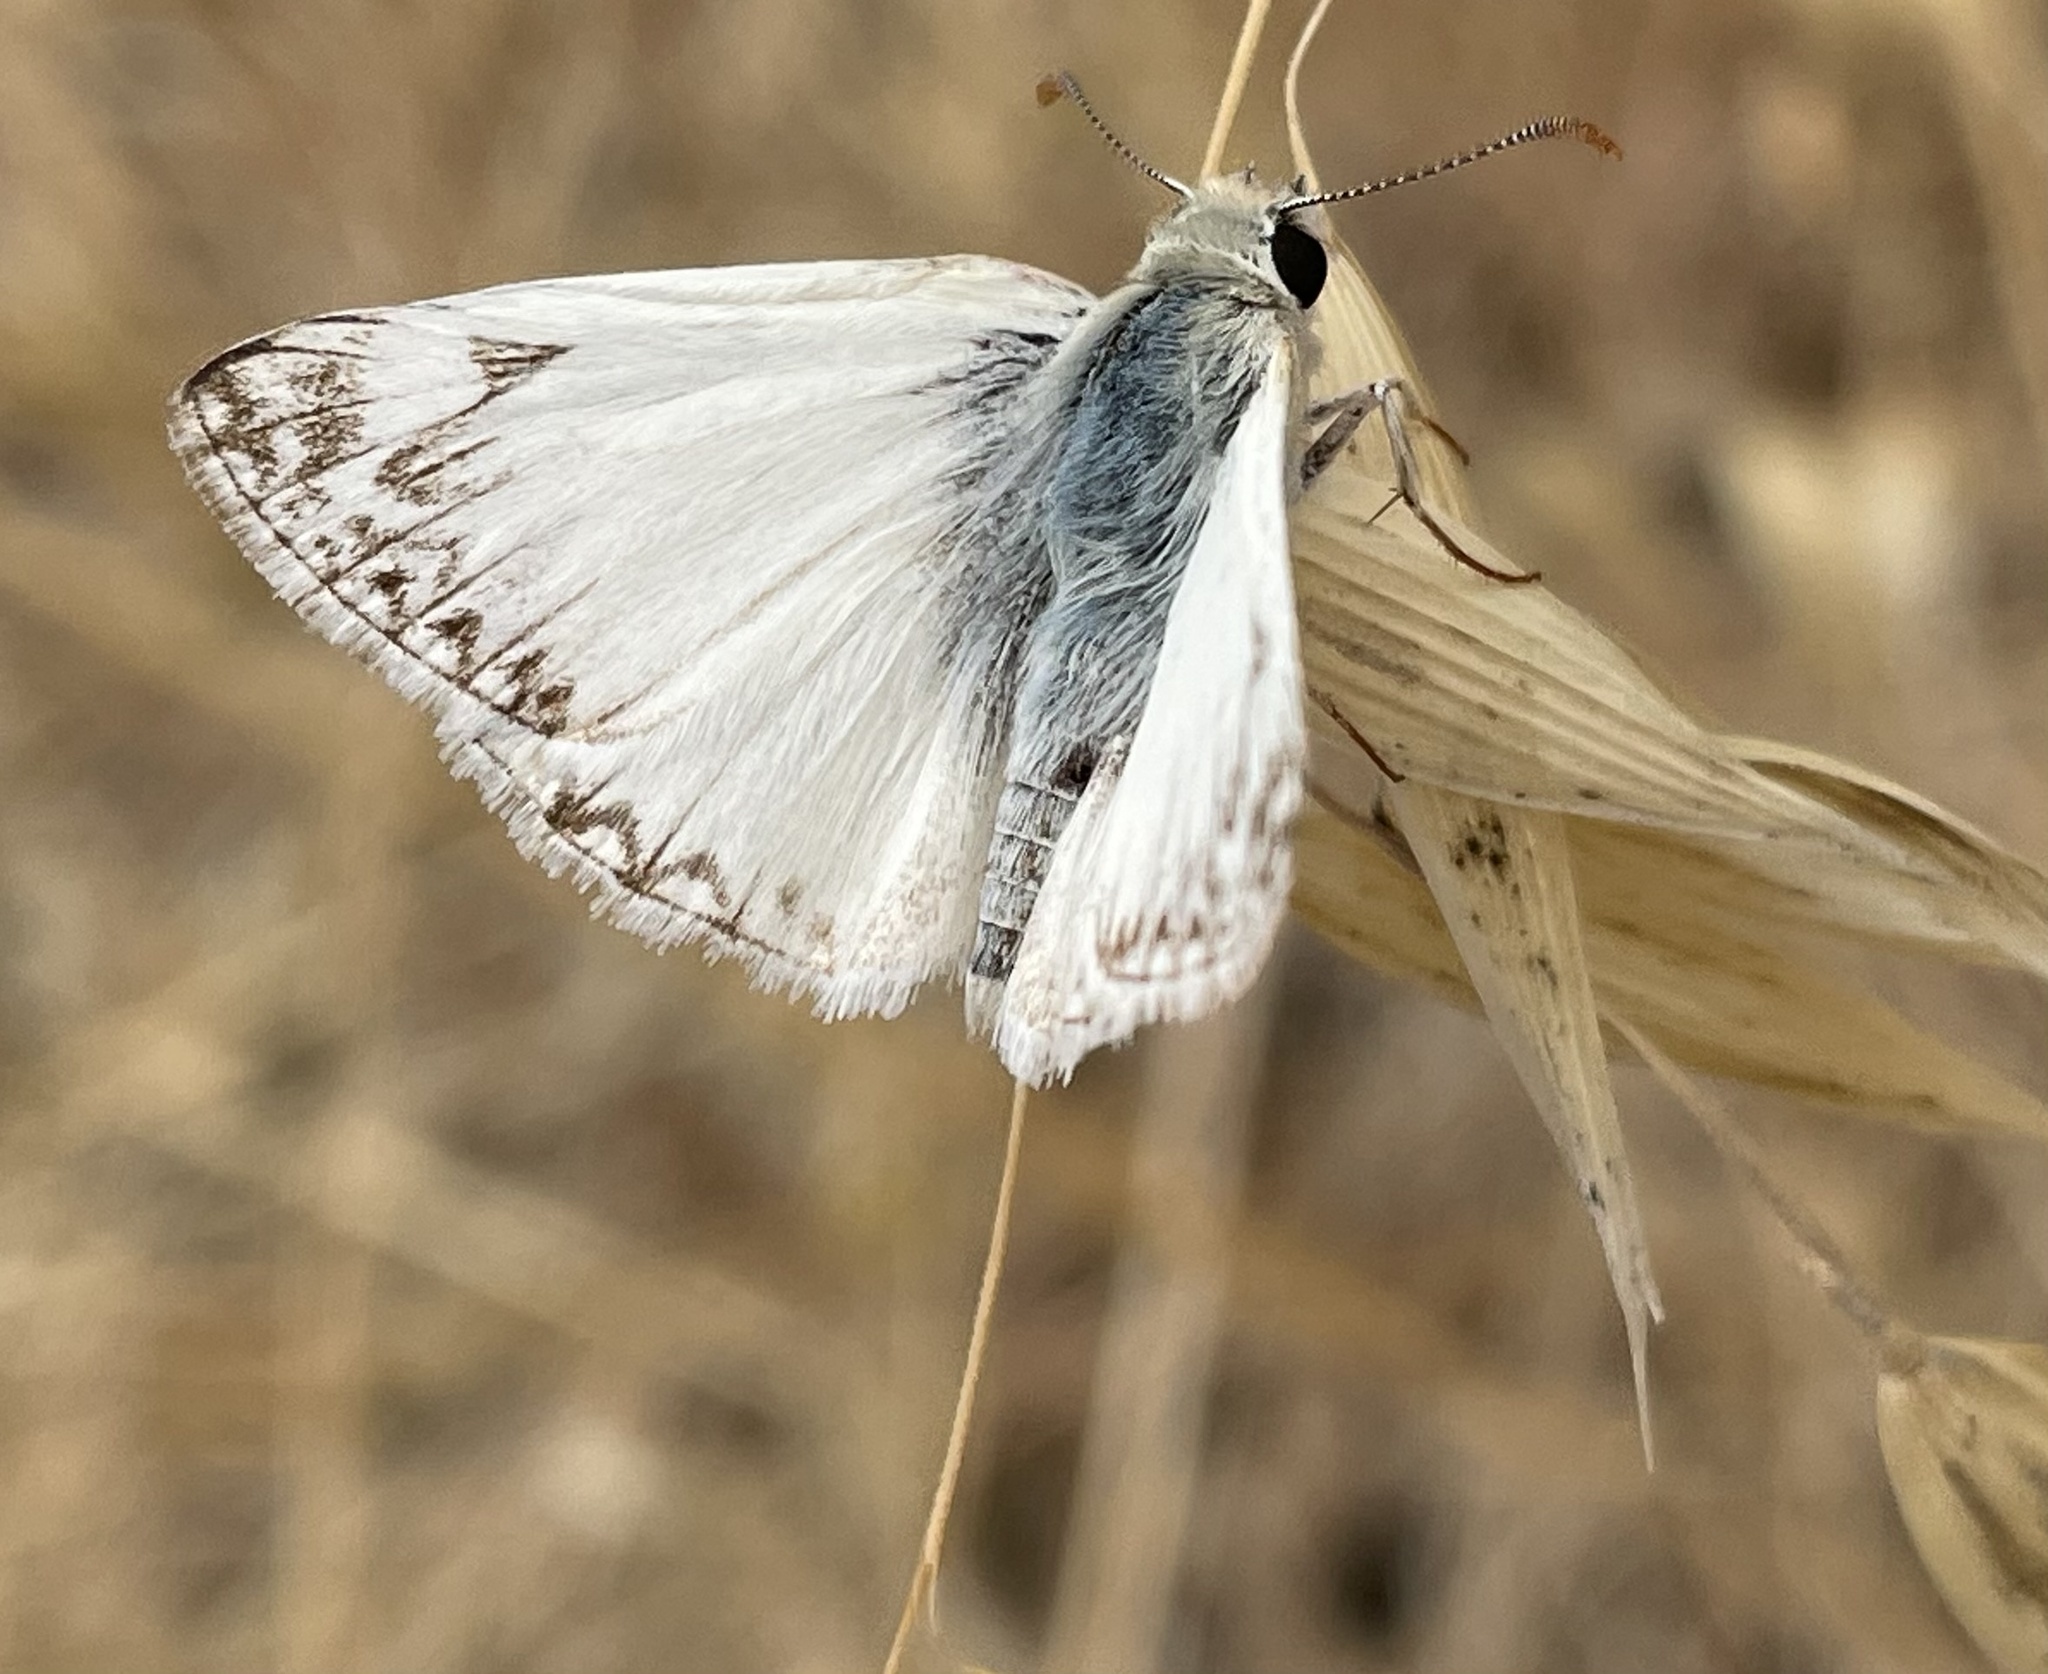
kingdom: Animalia
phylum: Arthropoda
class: Insecta
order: Lepidoptera
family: Hesperiidae
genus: Heliopetes
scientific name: Heliopetes ericetorum
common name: Northern white-skipper
